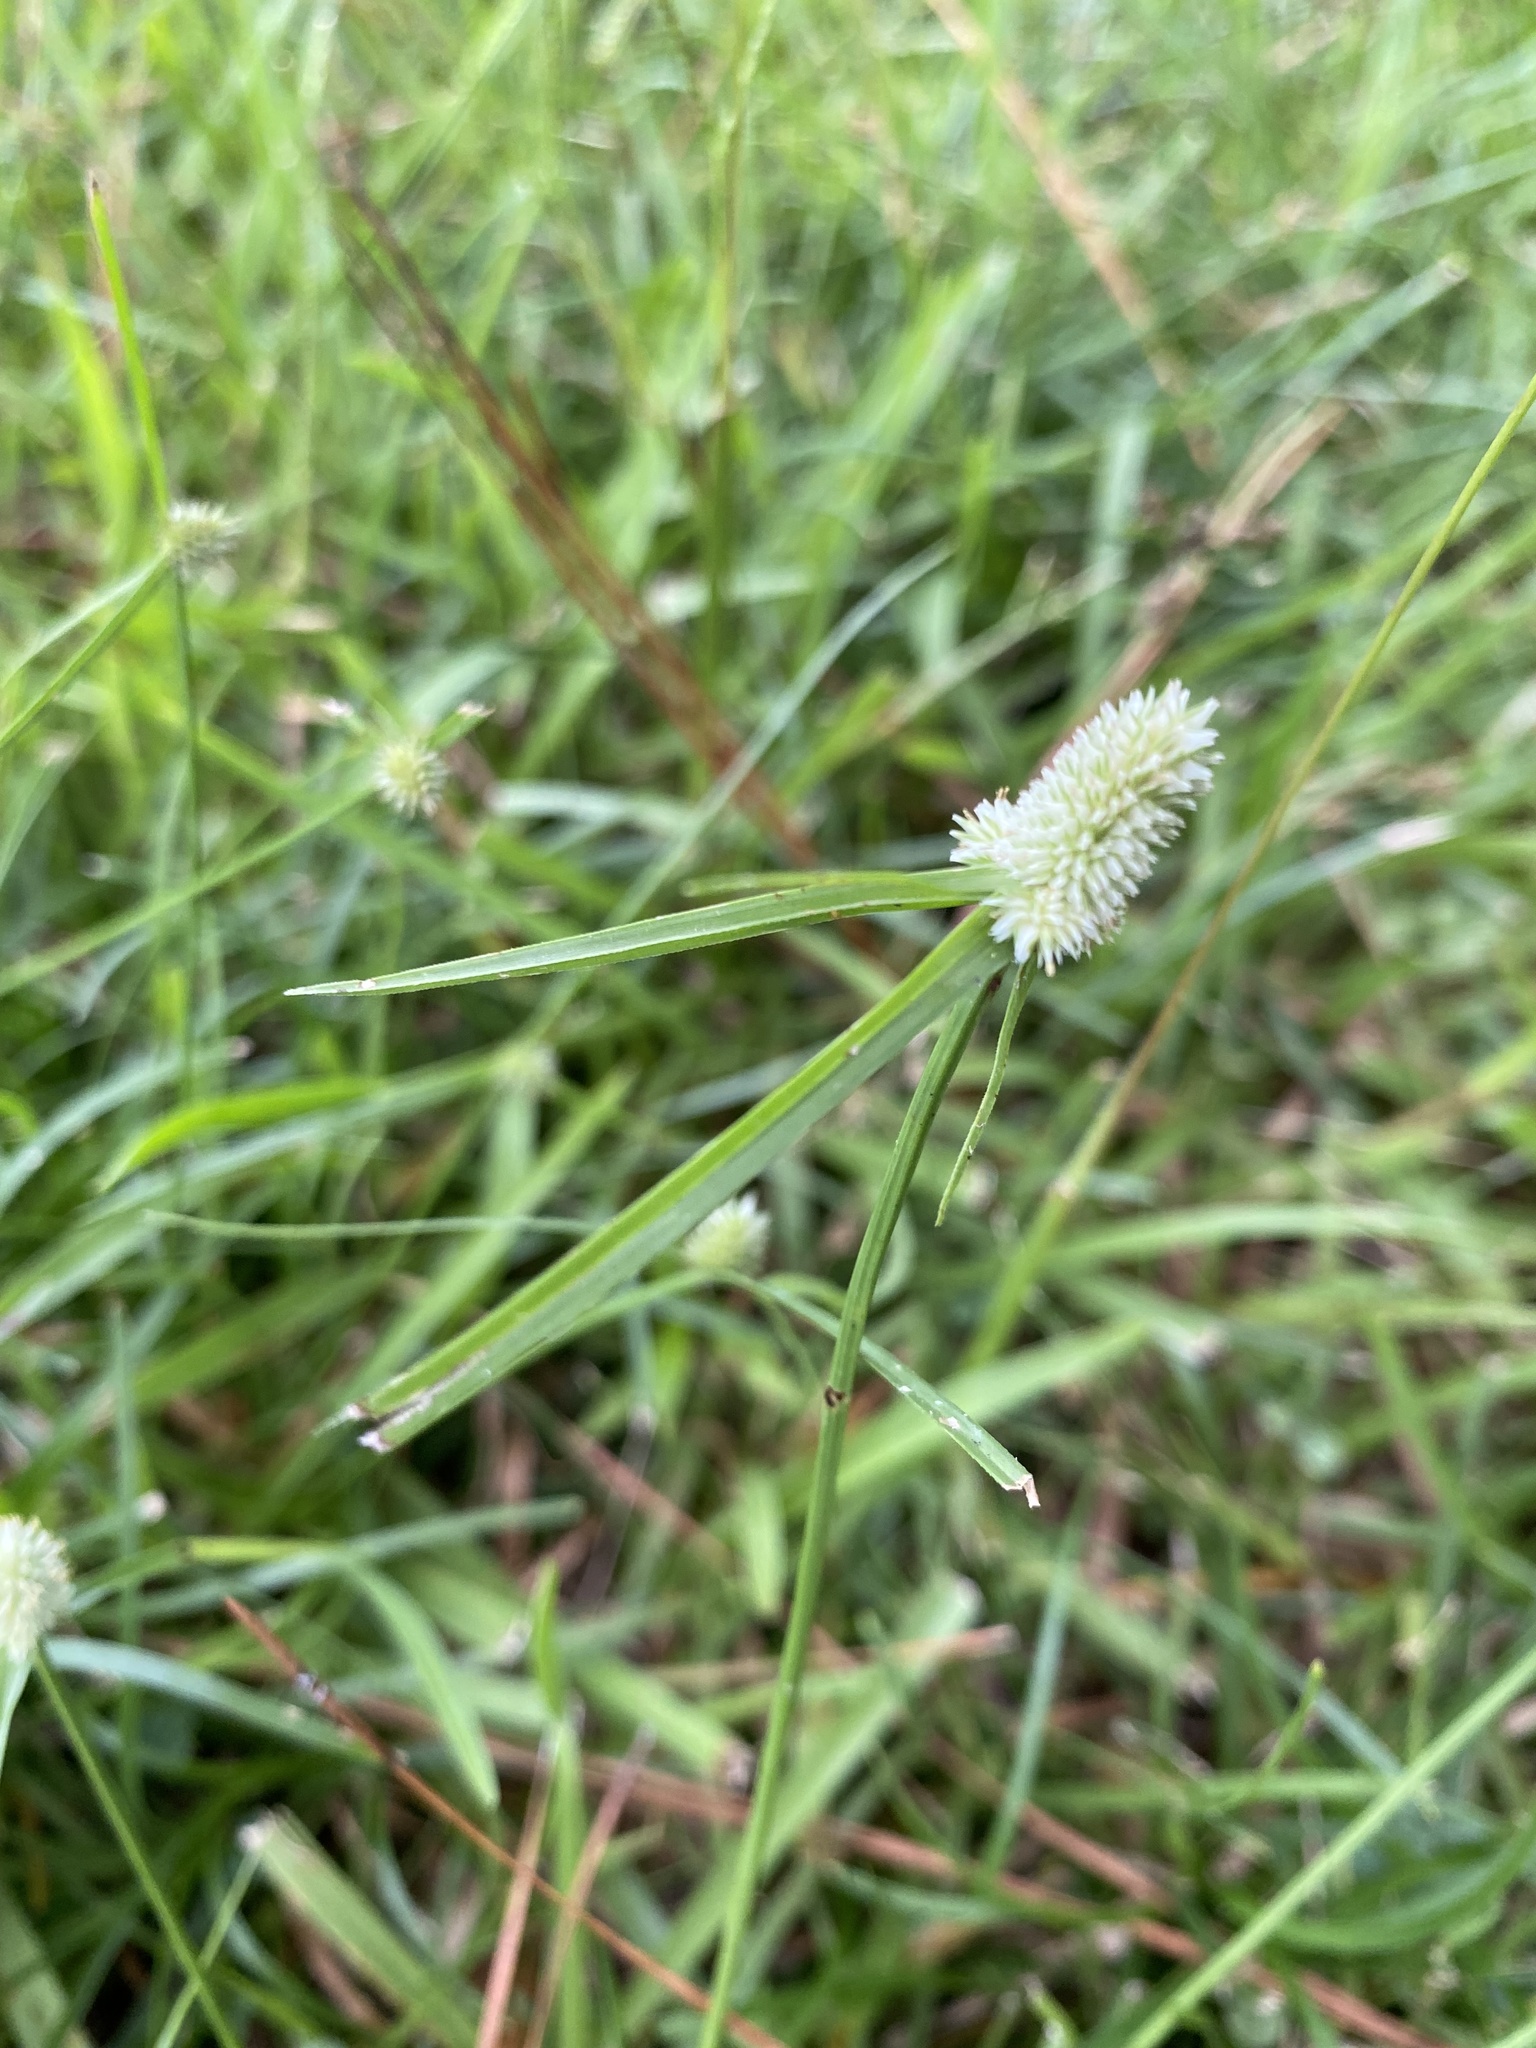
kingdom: Plantae
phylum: Tracheophyta
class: Liliopsida
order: Poales
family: Cyperaceae
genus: Cyperus
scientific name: Cyperus sesquiflorus
